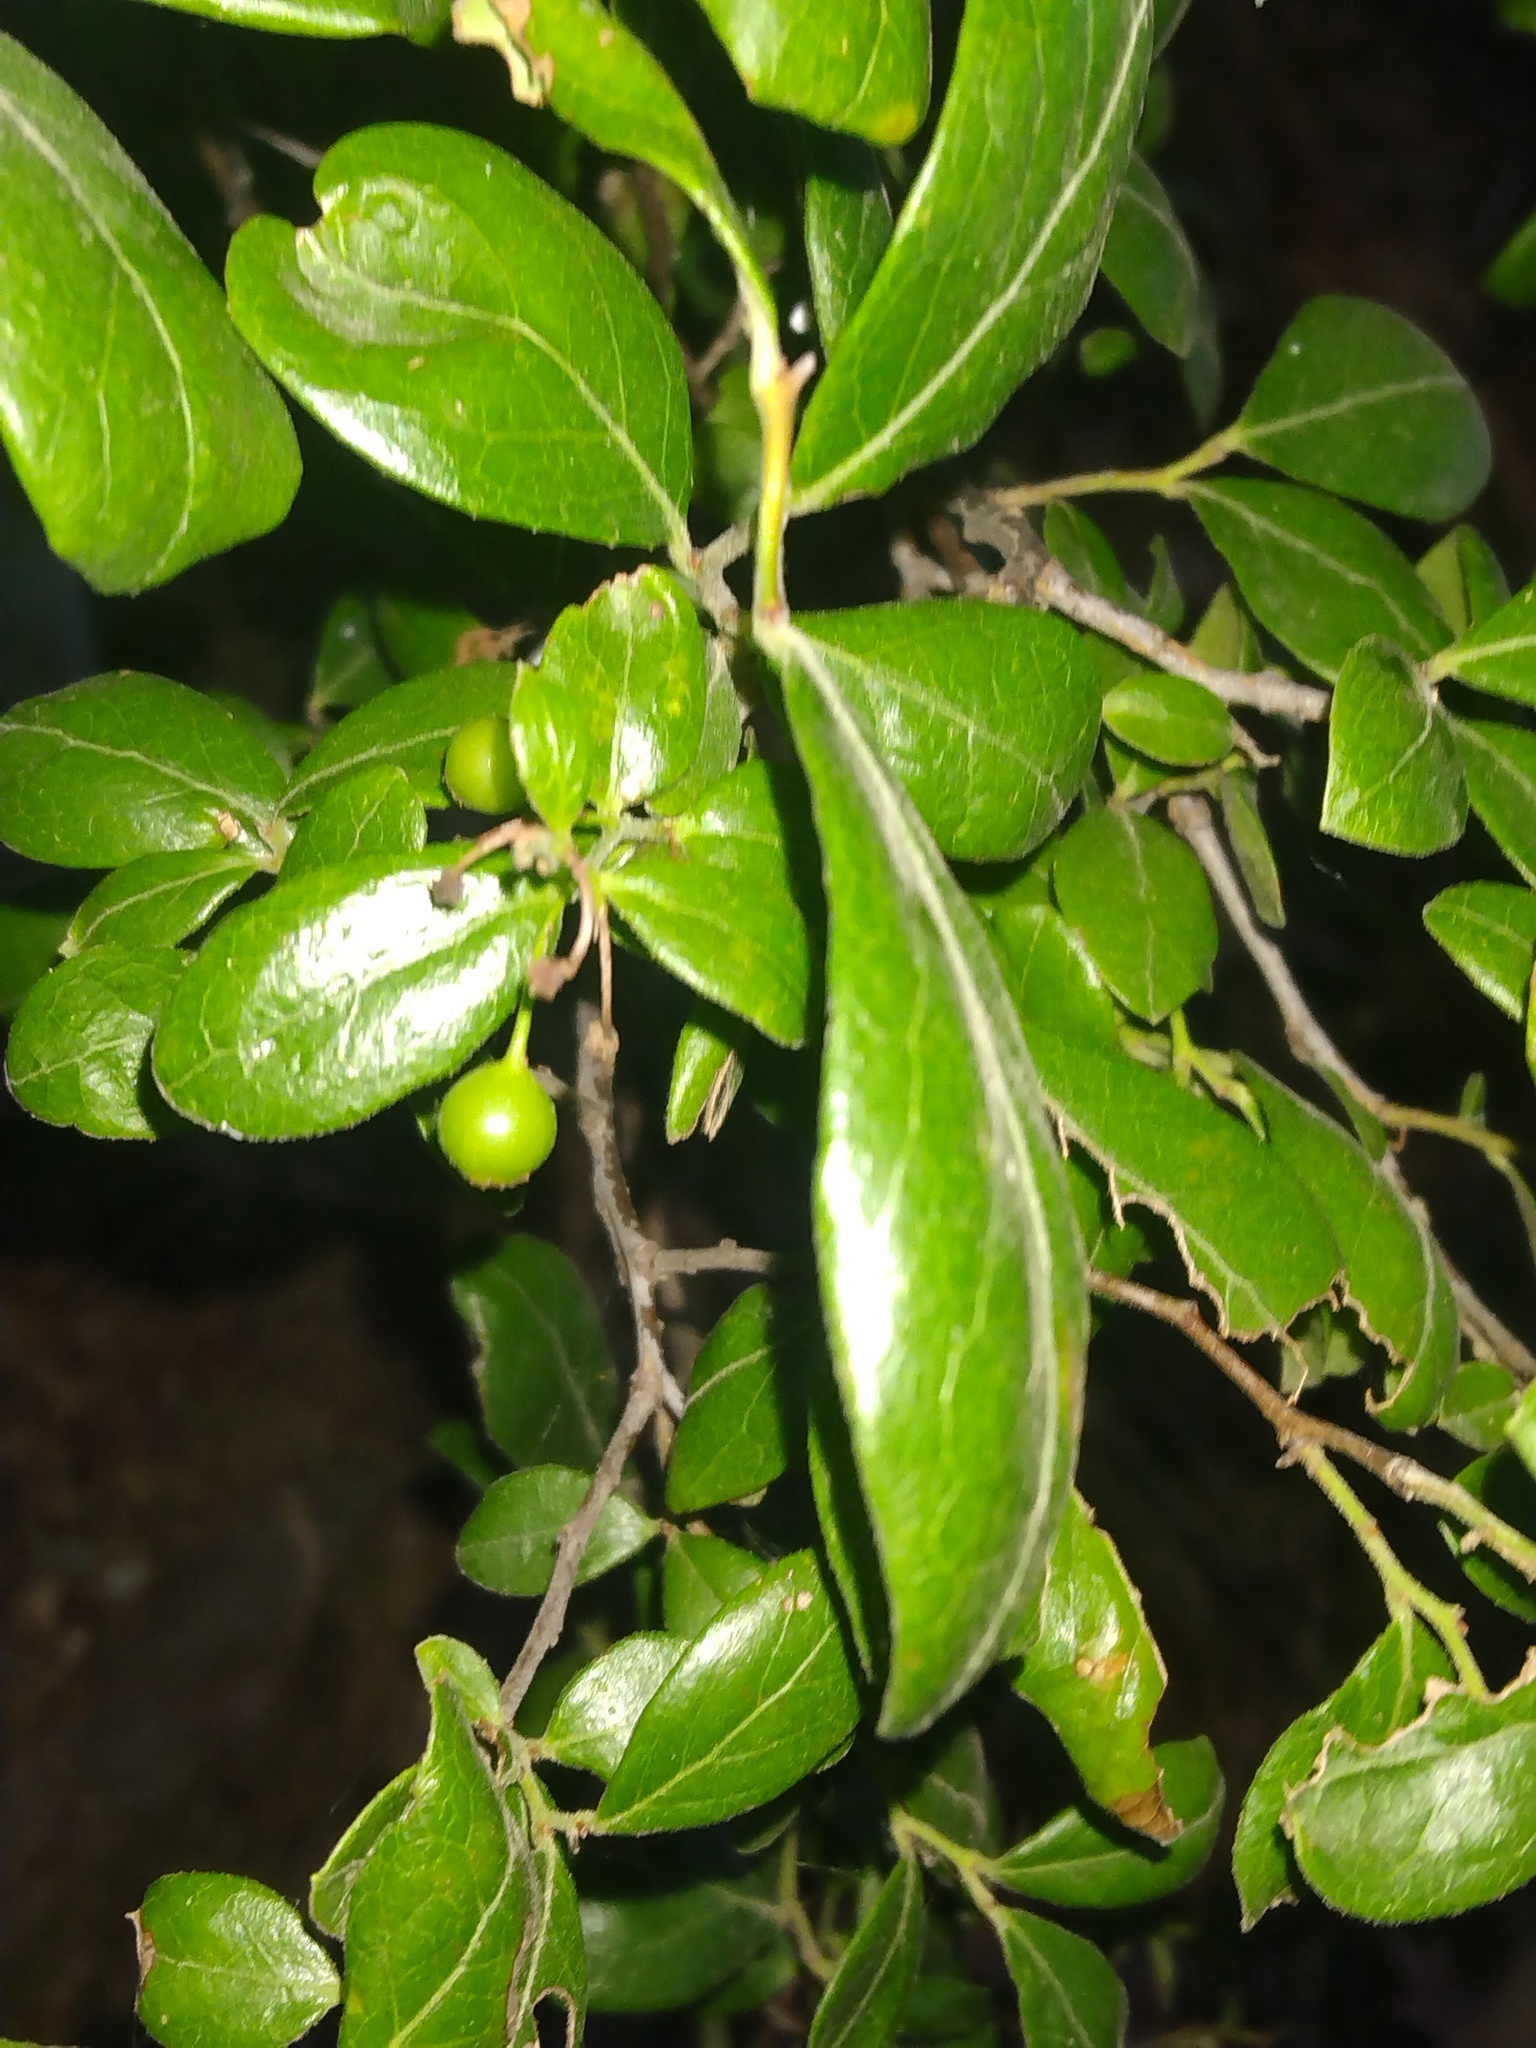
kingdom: Plantae
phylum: Tracheophyta
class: Magnoliopsida
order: Ericales
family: Ericaceae
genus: Vaccinium
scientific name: Vaccinium arboreum
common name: Farkleberry
